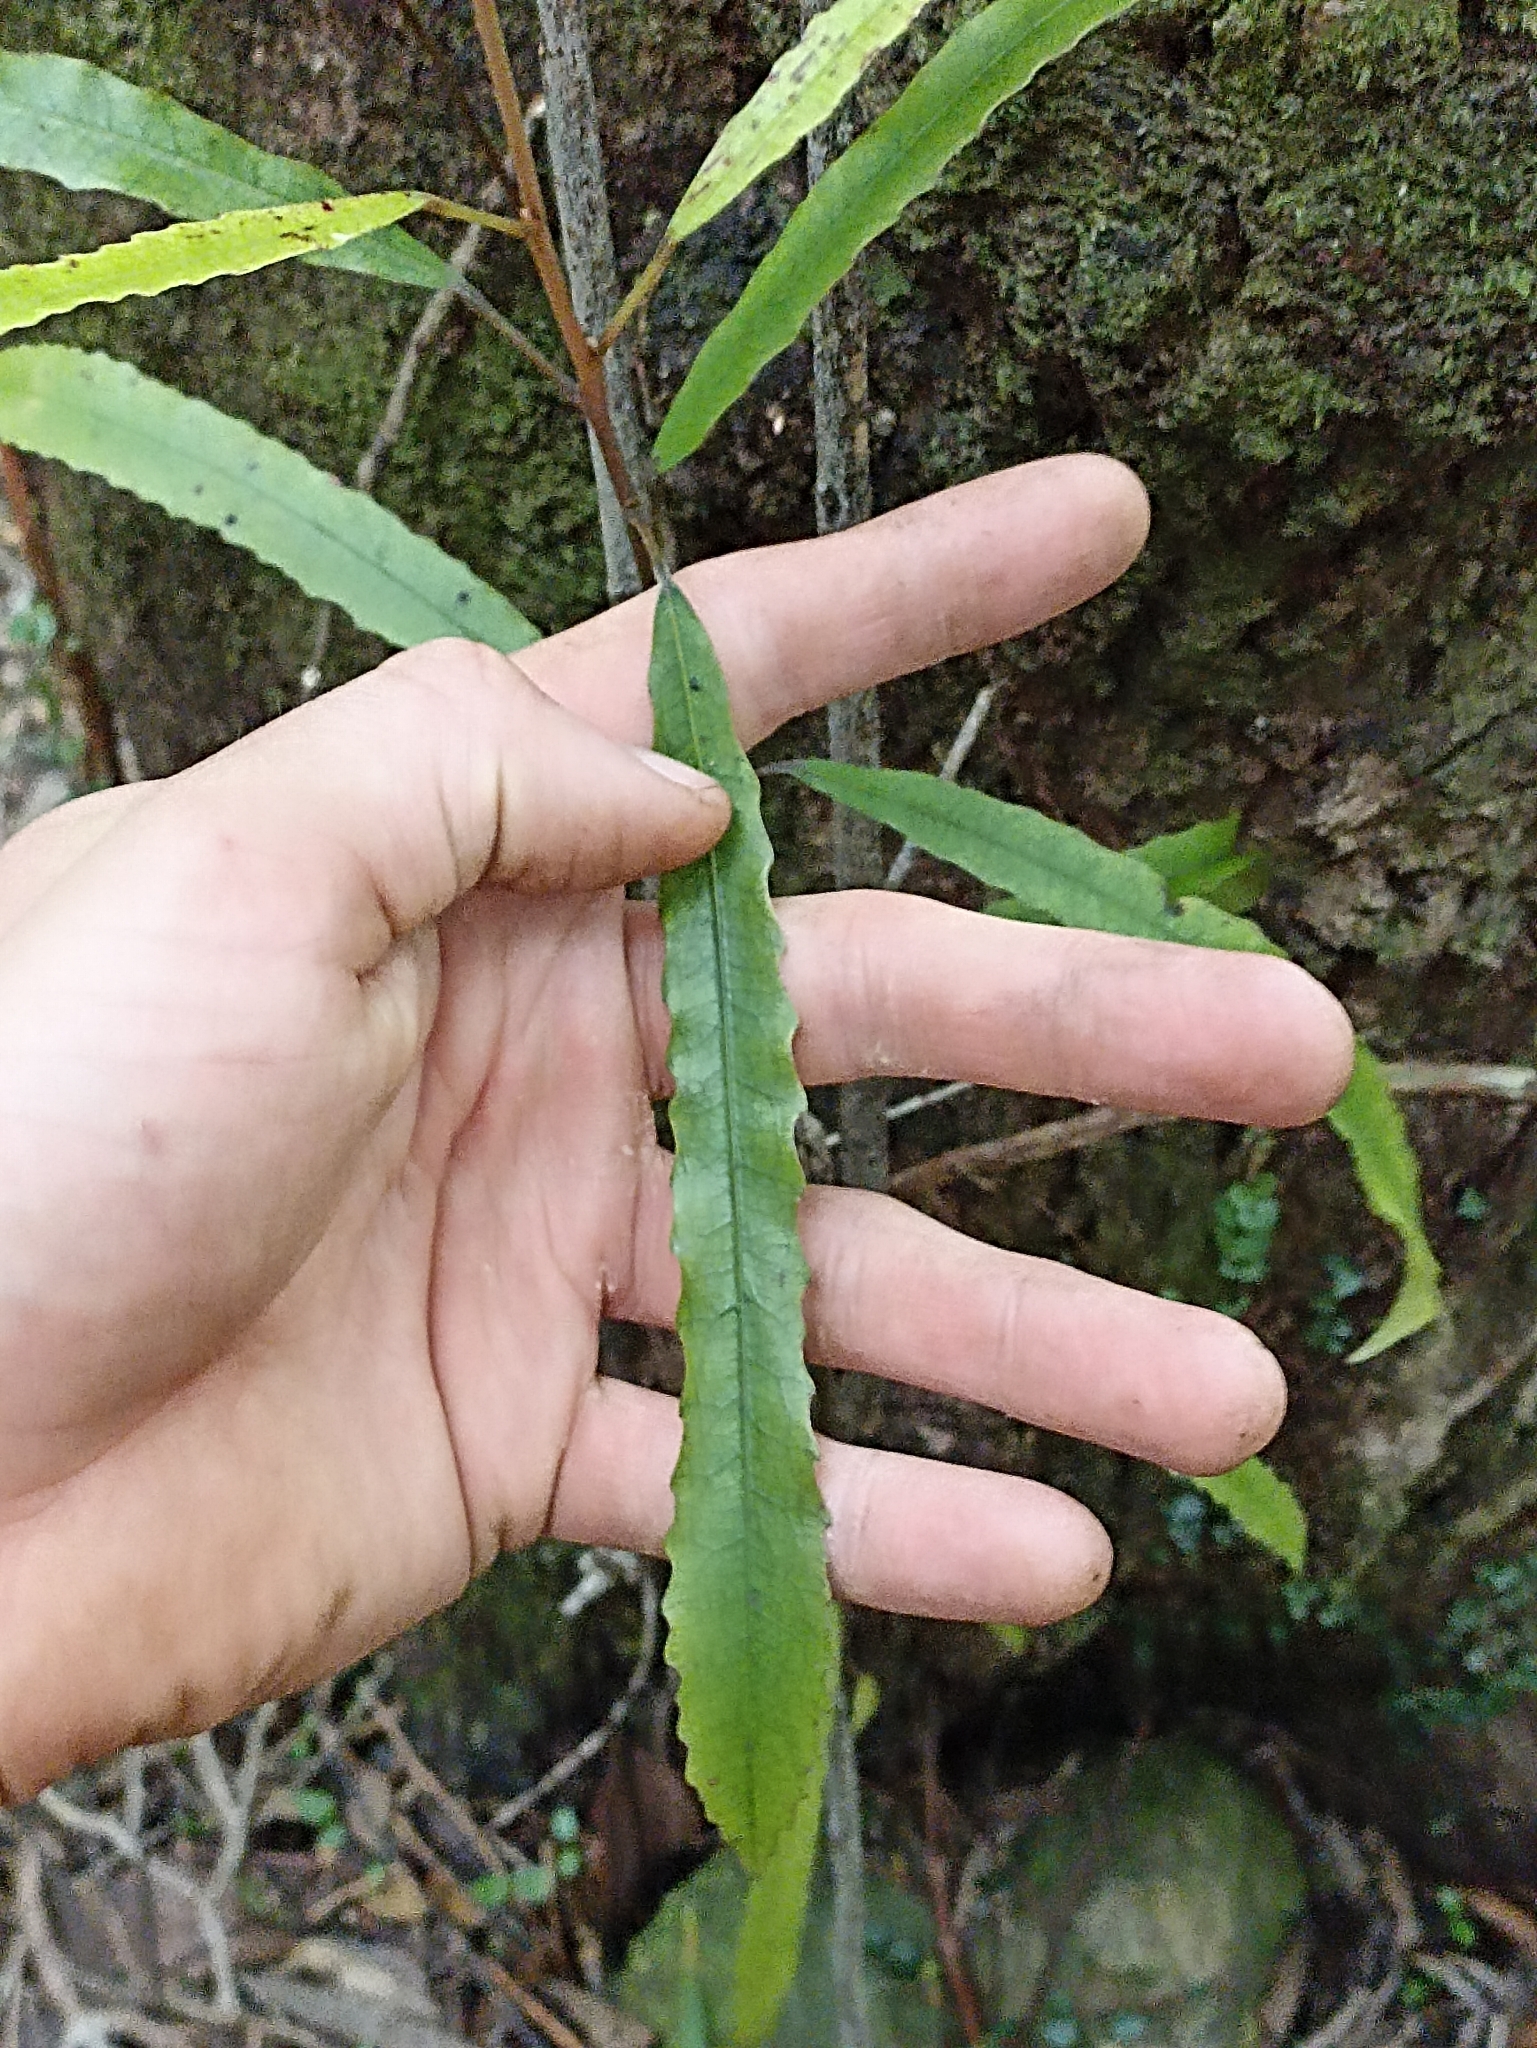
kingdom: Plantae
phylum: Tracheophyta
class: Magnoliopsida
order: Oxalidales
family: Elaeocarpaceae
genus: Elaeocarpus
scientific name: Elaeocarpus dentatus
